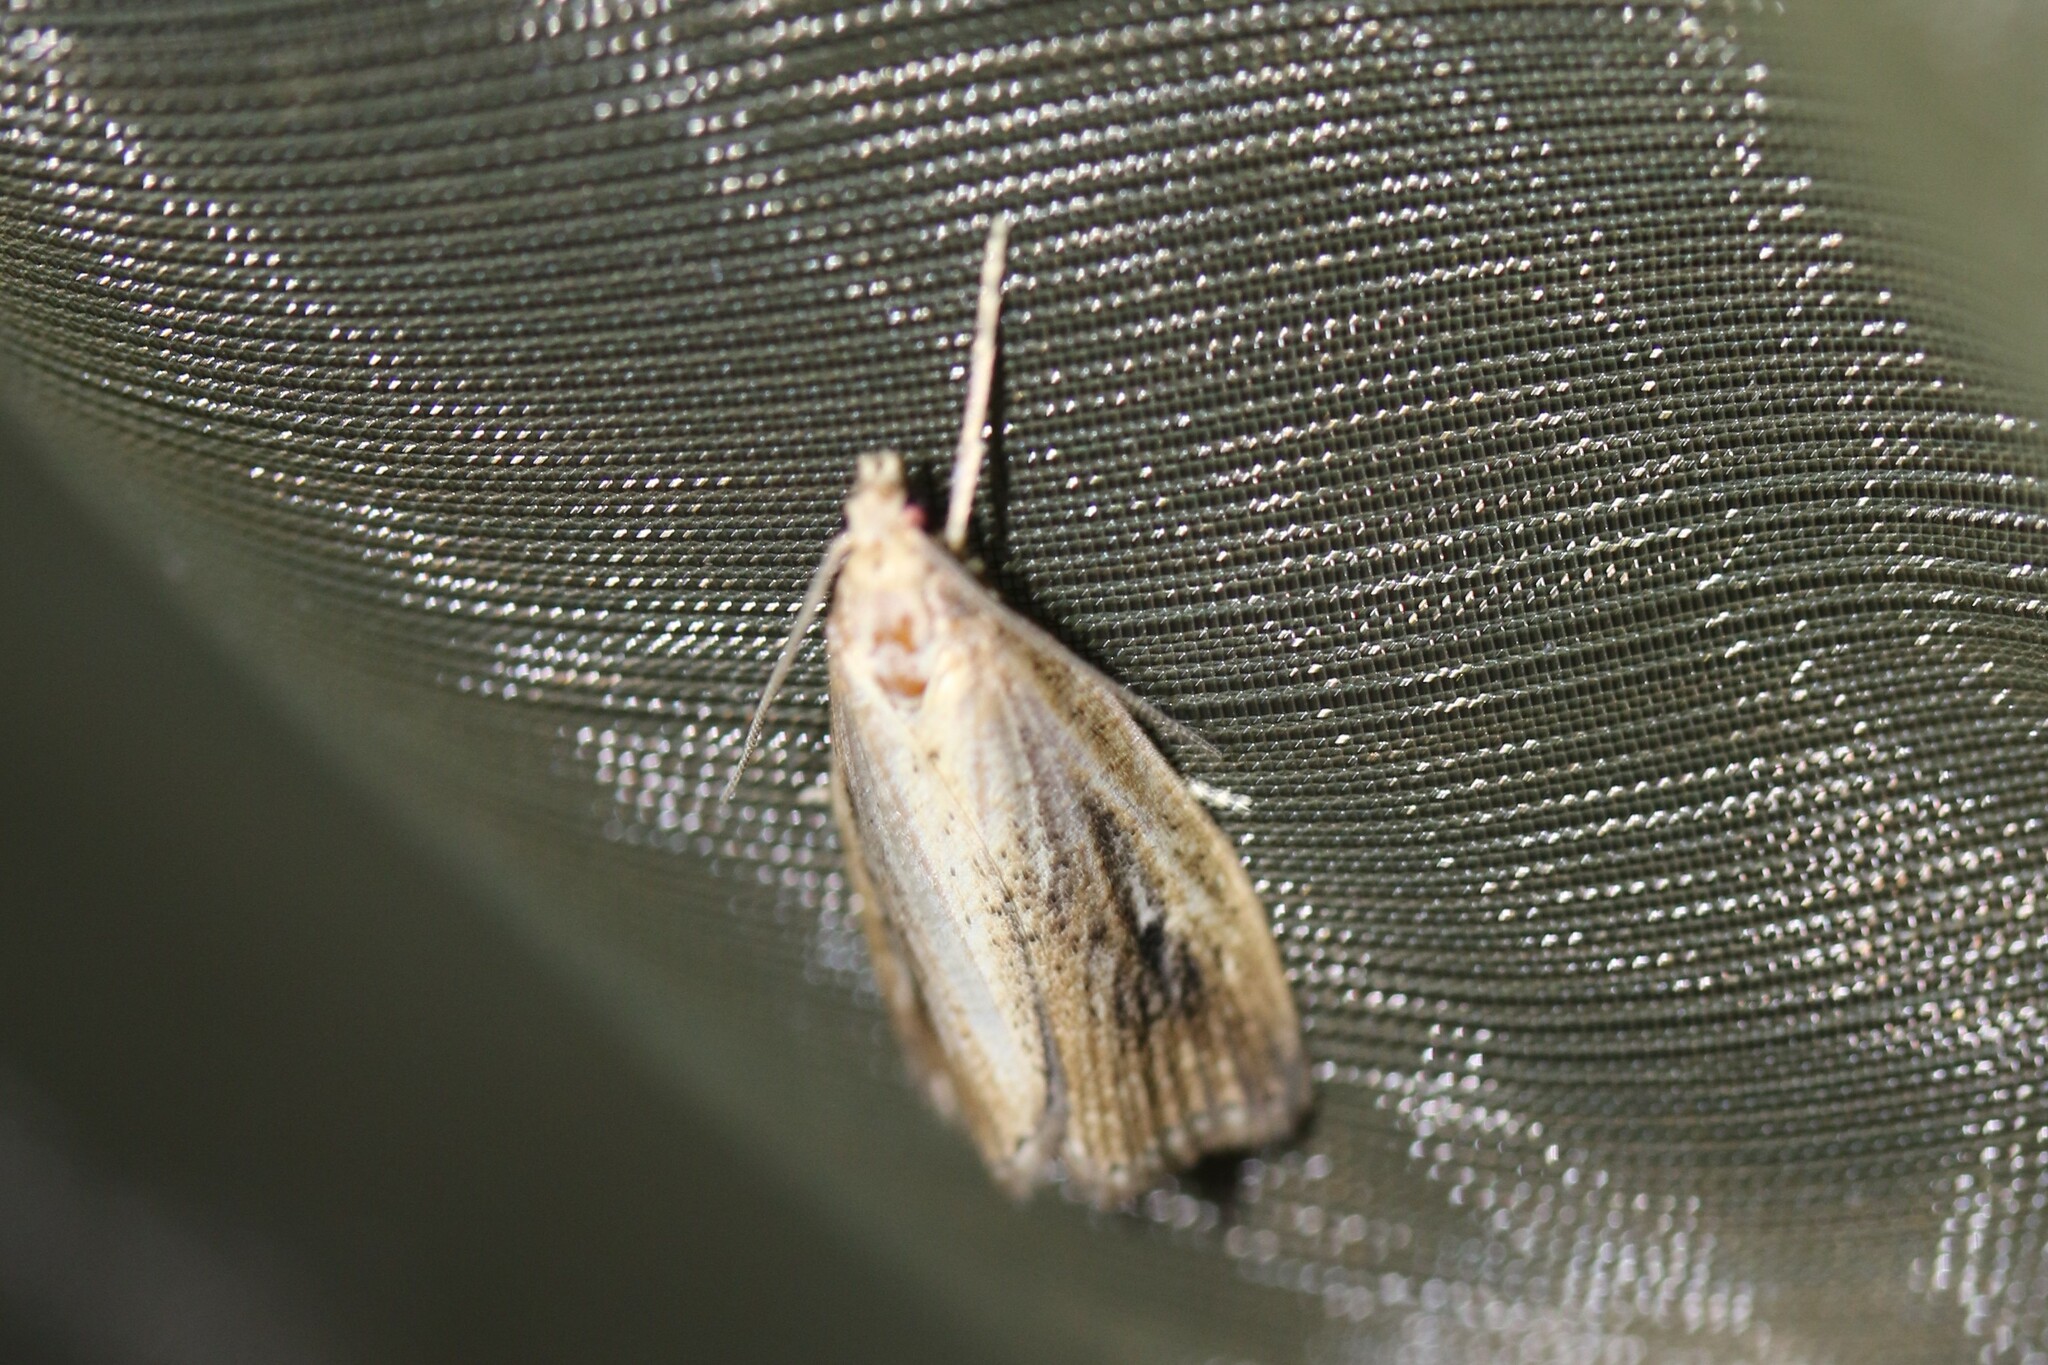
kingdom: Animalia
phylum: Arthropoda
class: Insecta
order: Lepidoptera
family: Crambidae
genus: Chilo
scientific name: Chilo phragmitella
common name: Reed veneer
